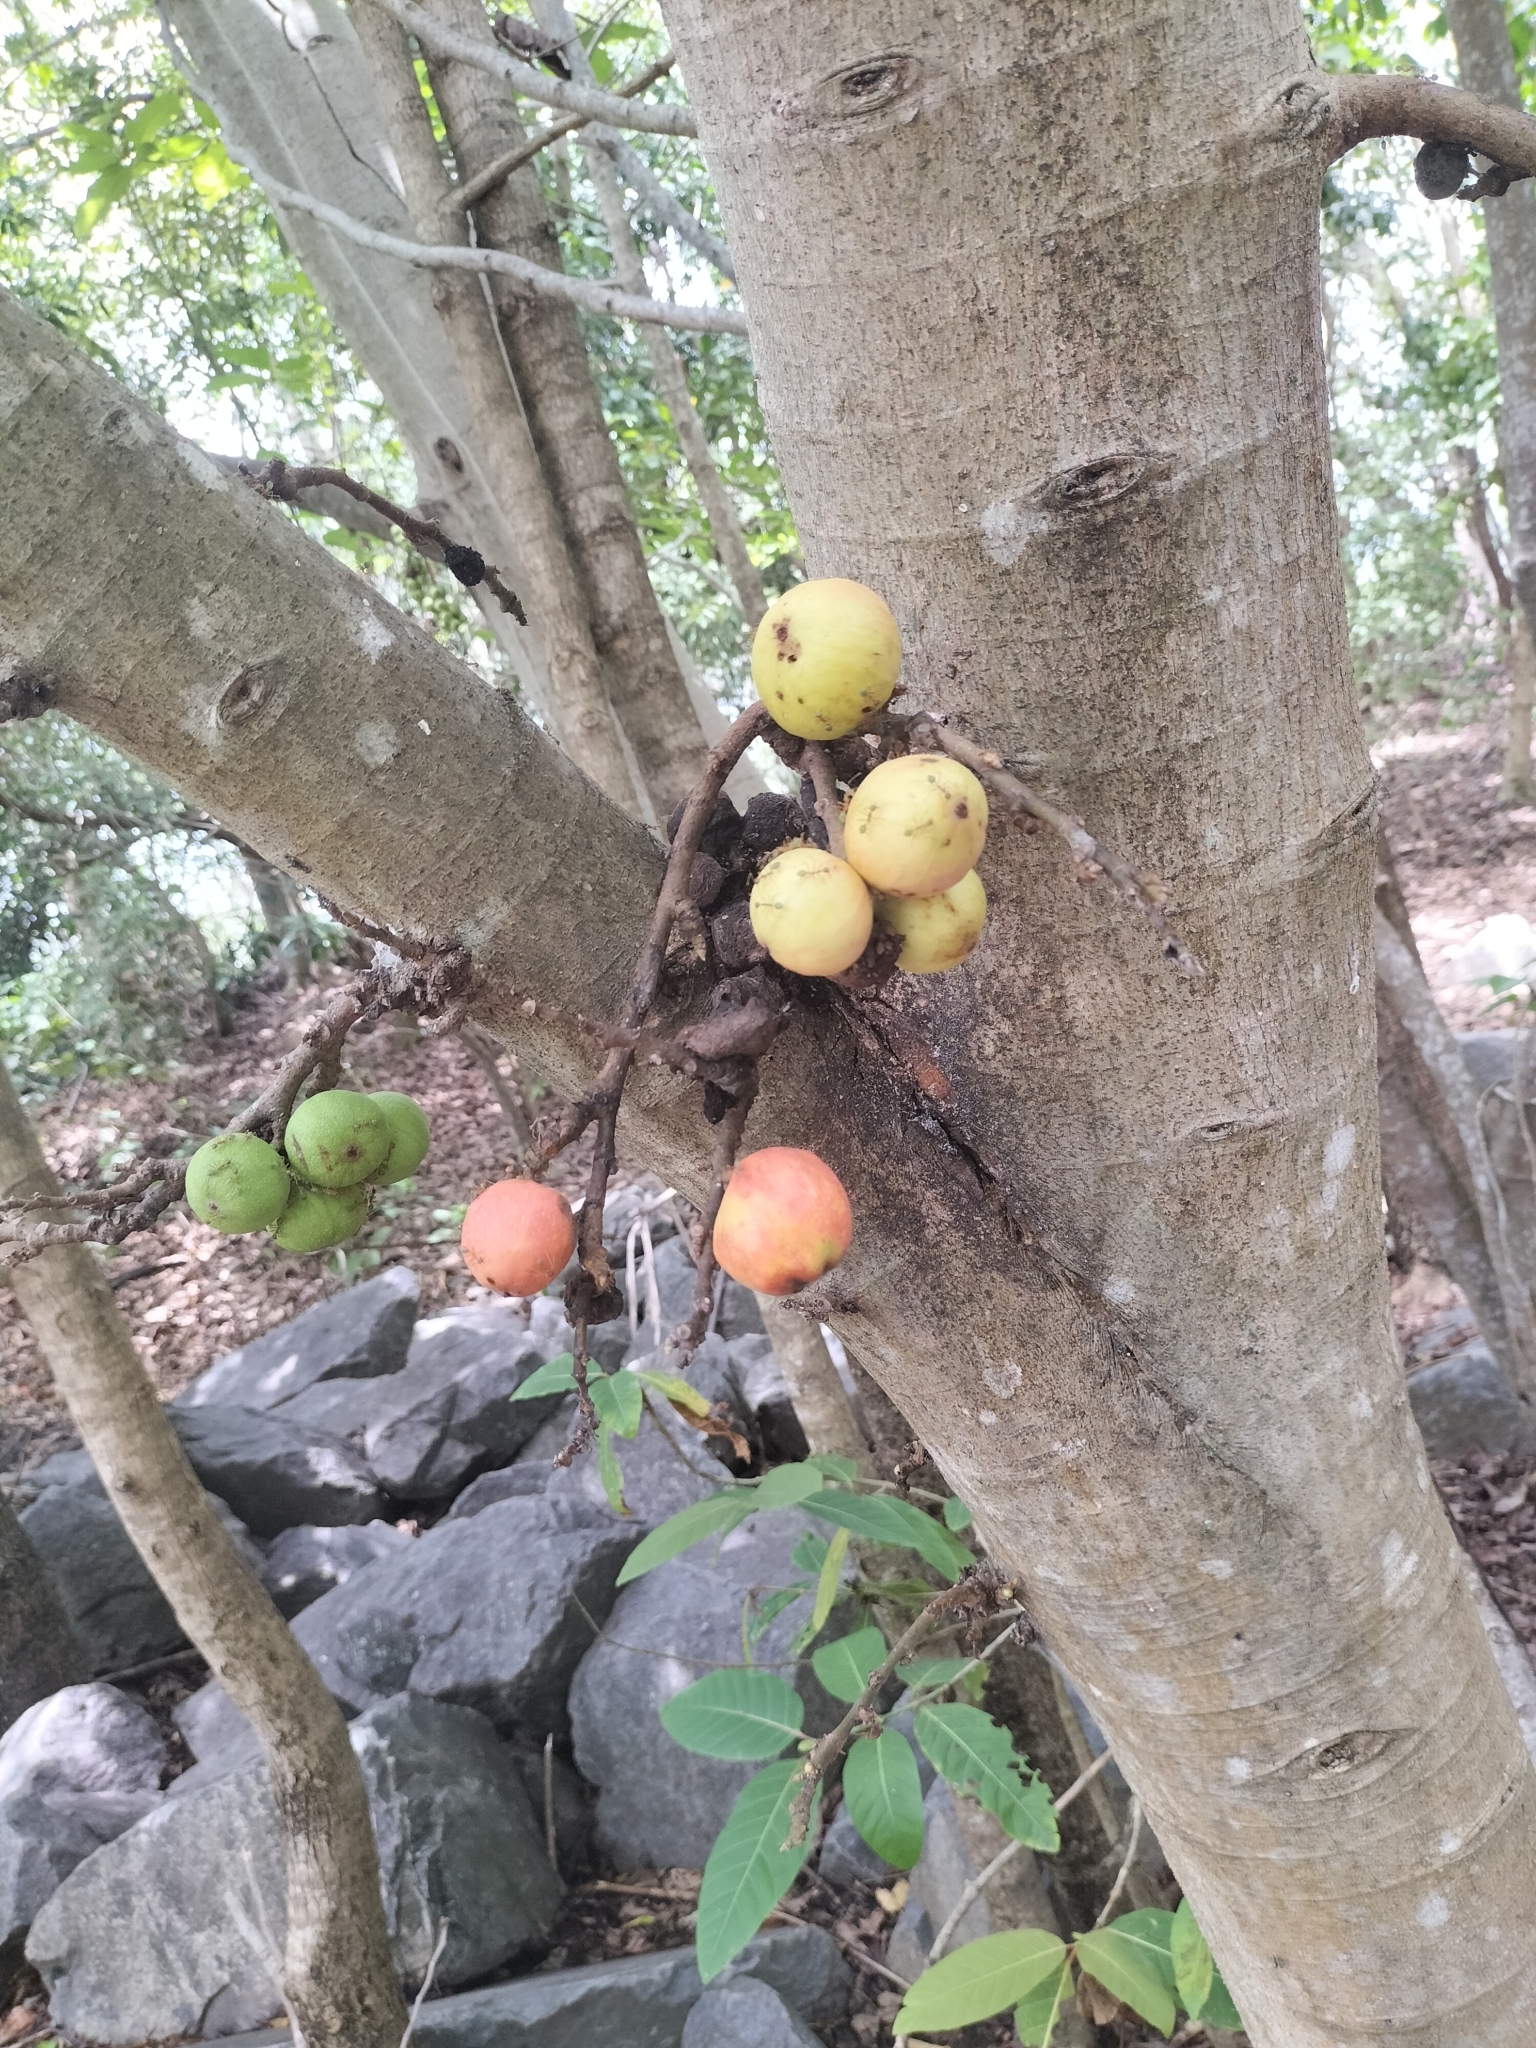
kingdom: Plantae
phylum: Tracheophyta
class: Magnoliopsida
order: Rosales
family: Moraceae
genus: Ficus
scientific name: Ficus racemosa
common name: Cluster fig
